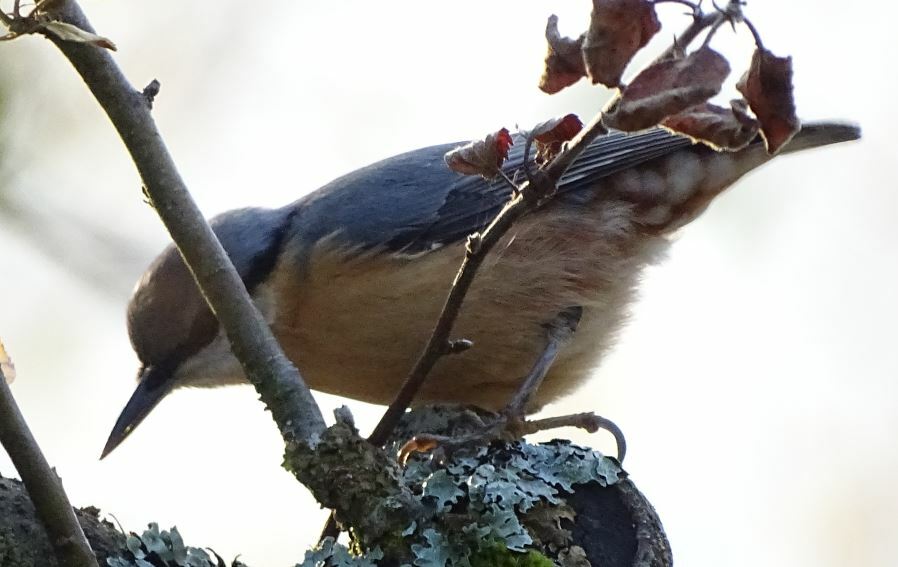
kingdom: Animalia
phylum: Chordata
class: Aves
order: Passeriformes
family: Sittidae
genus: Sitta
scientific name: Sitta europaea
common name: Eurasian nuthatch
